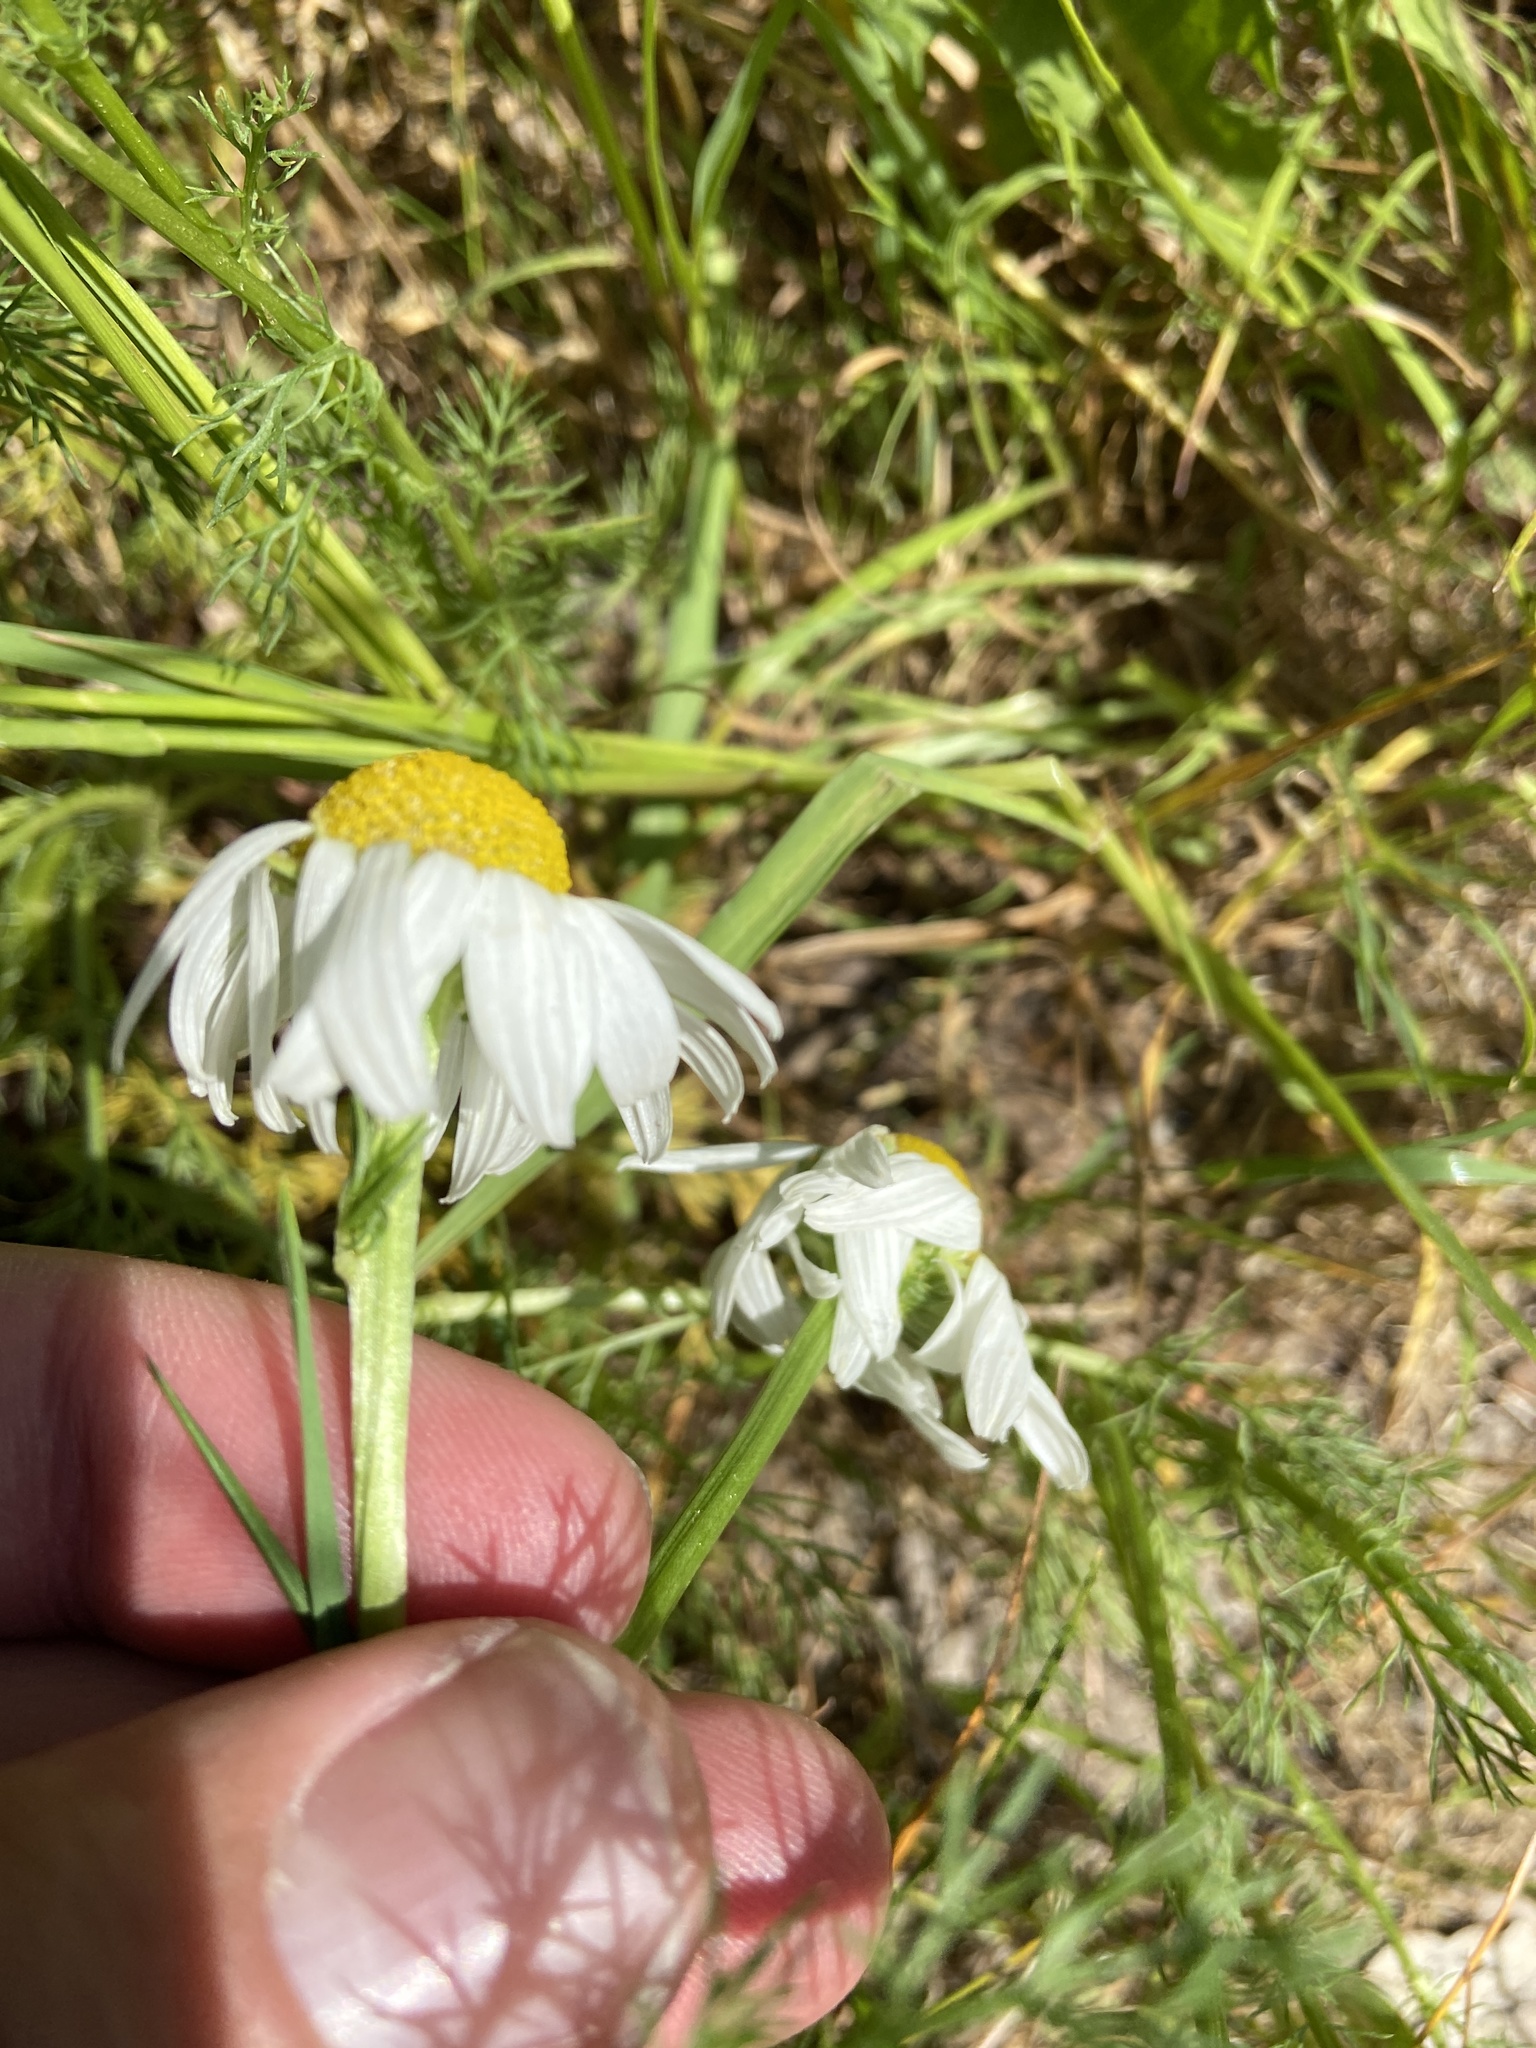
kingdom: Plantae
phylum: Tracheophyta
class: Magnoliopsida
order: Asterales
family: Asteraceae
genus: Tripleurospermum
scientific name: Tripleurospermum inodorum
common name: Scentless mayweed
